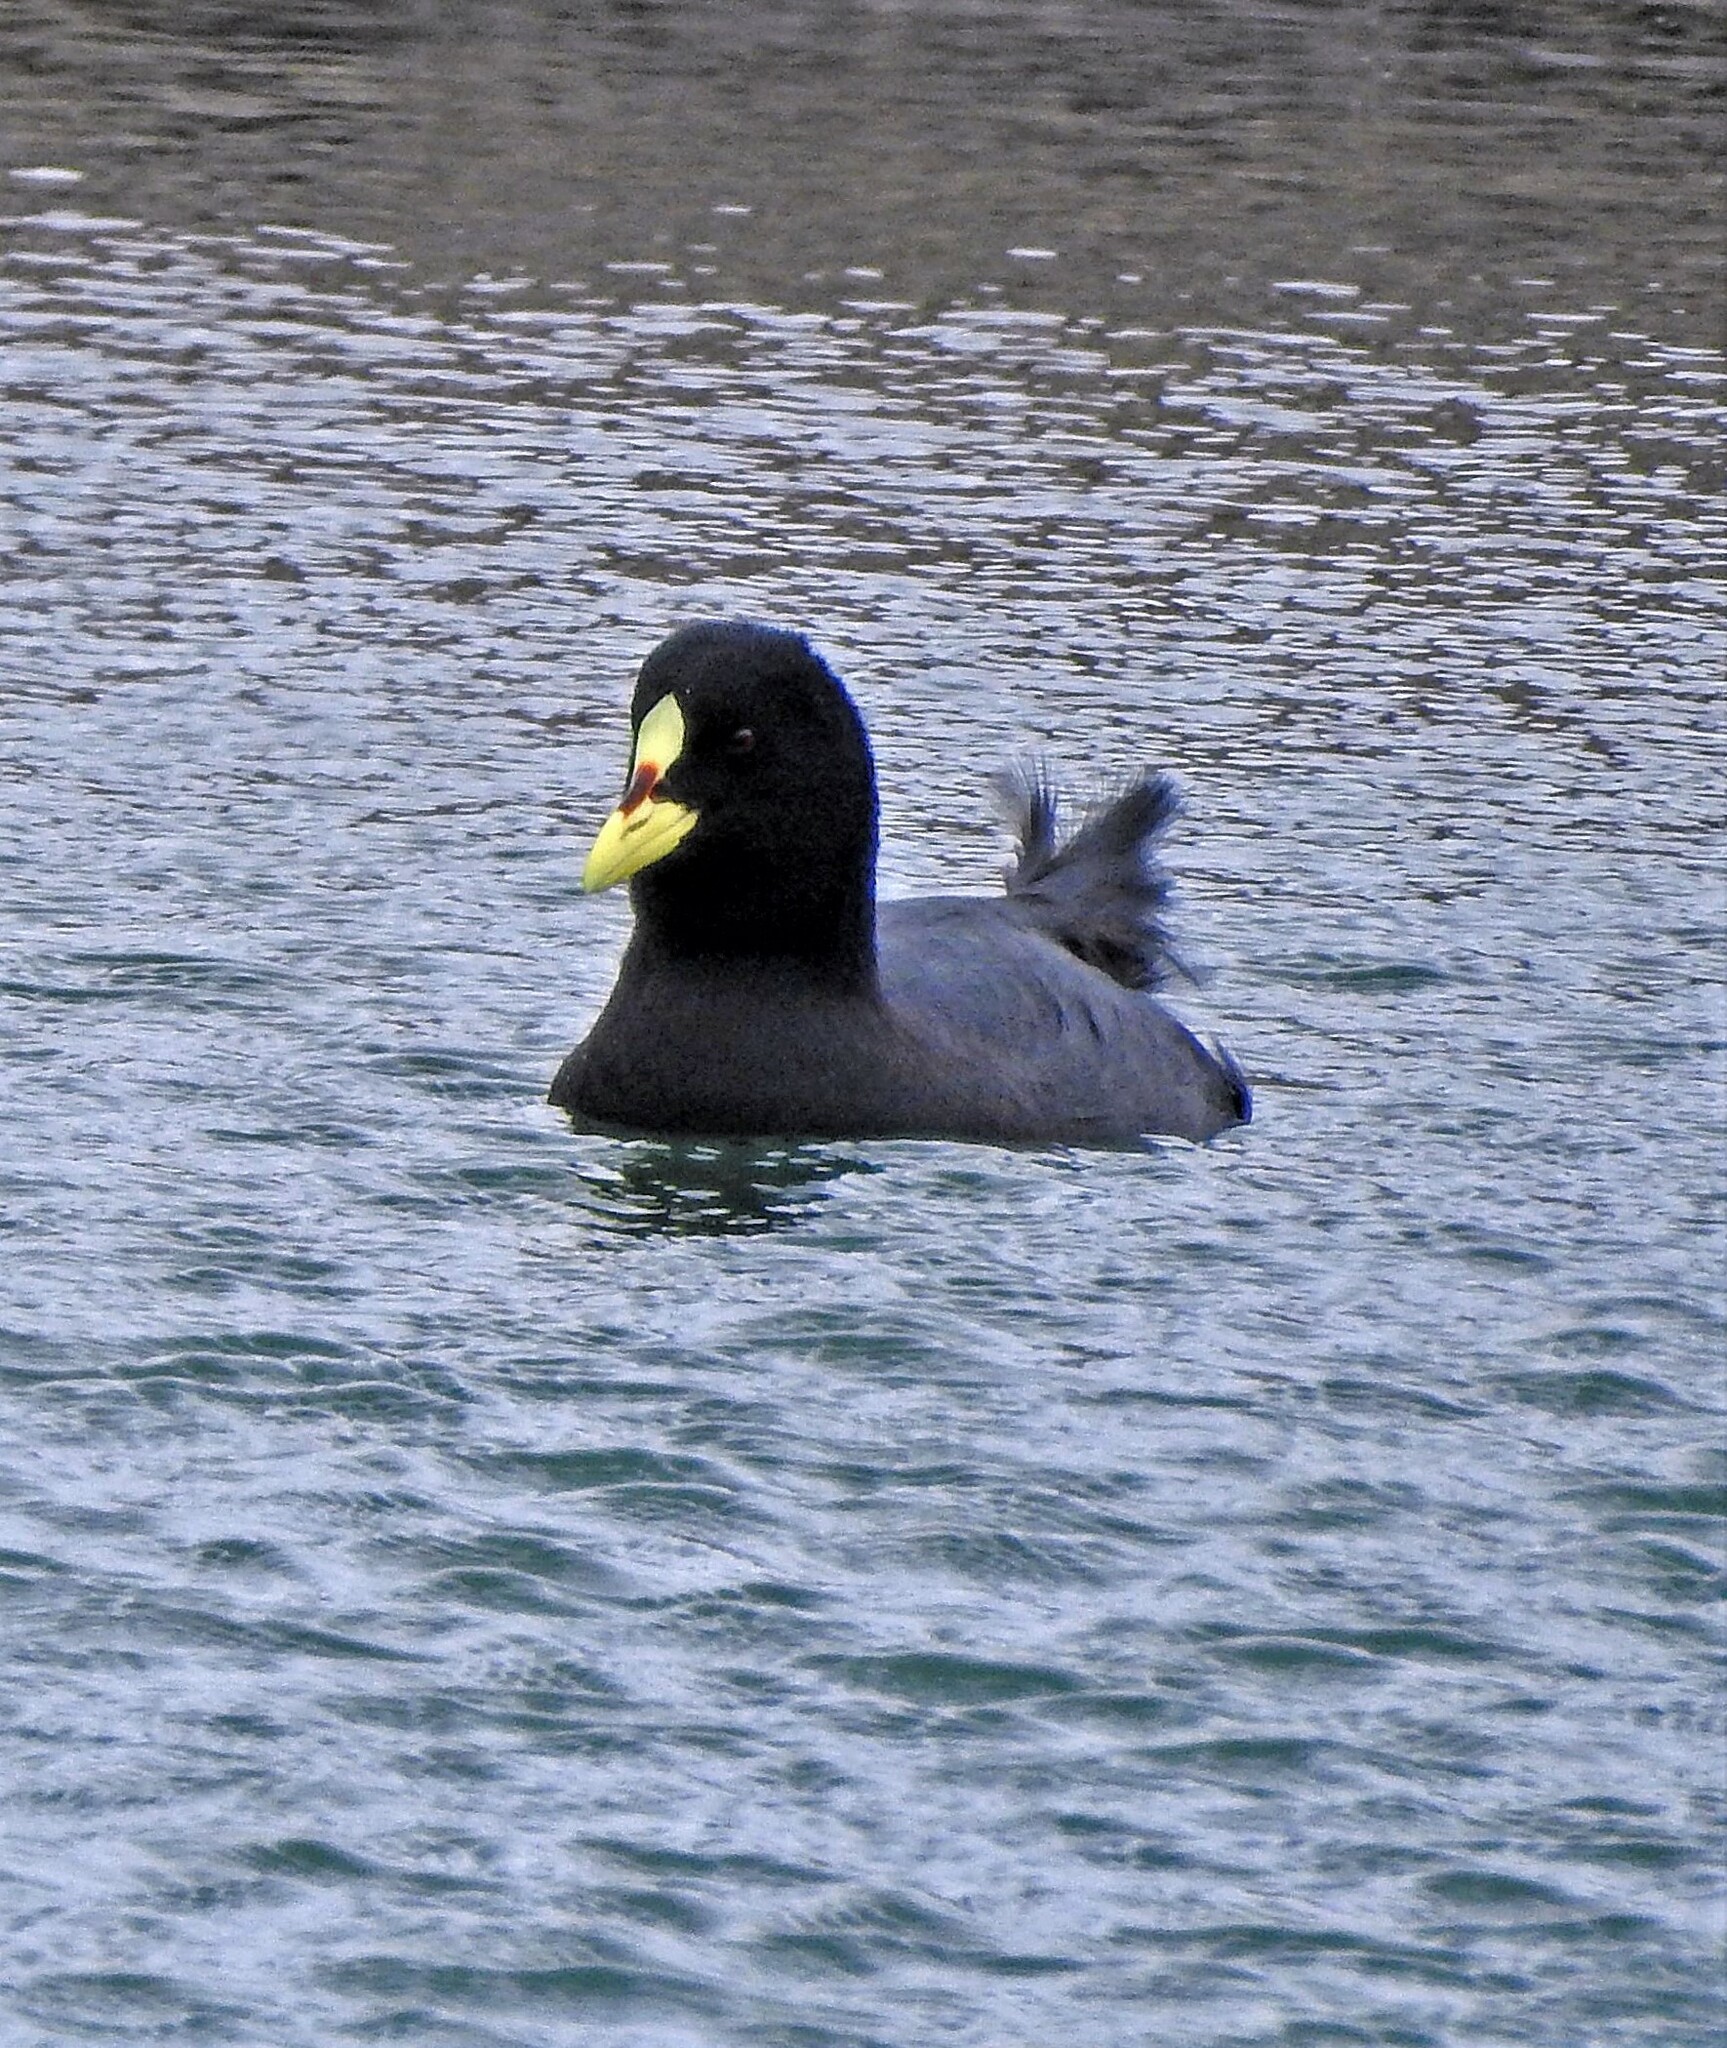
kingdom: Animalia
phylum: Chordata
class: Aves
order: Gruiformes
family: Rallidae
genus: Fulica
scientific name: Fulica armillata
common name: Red-gartered coot
